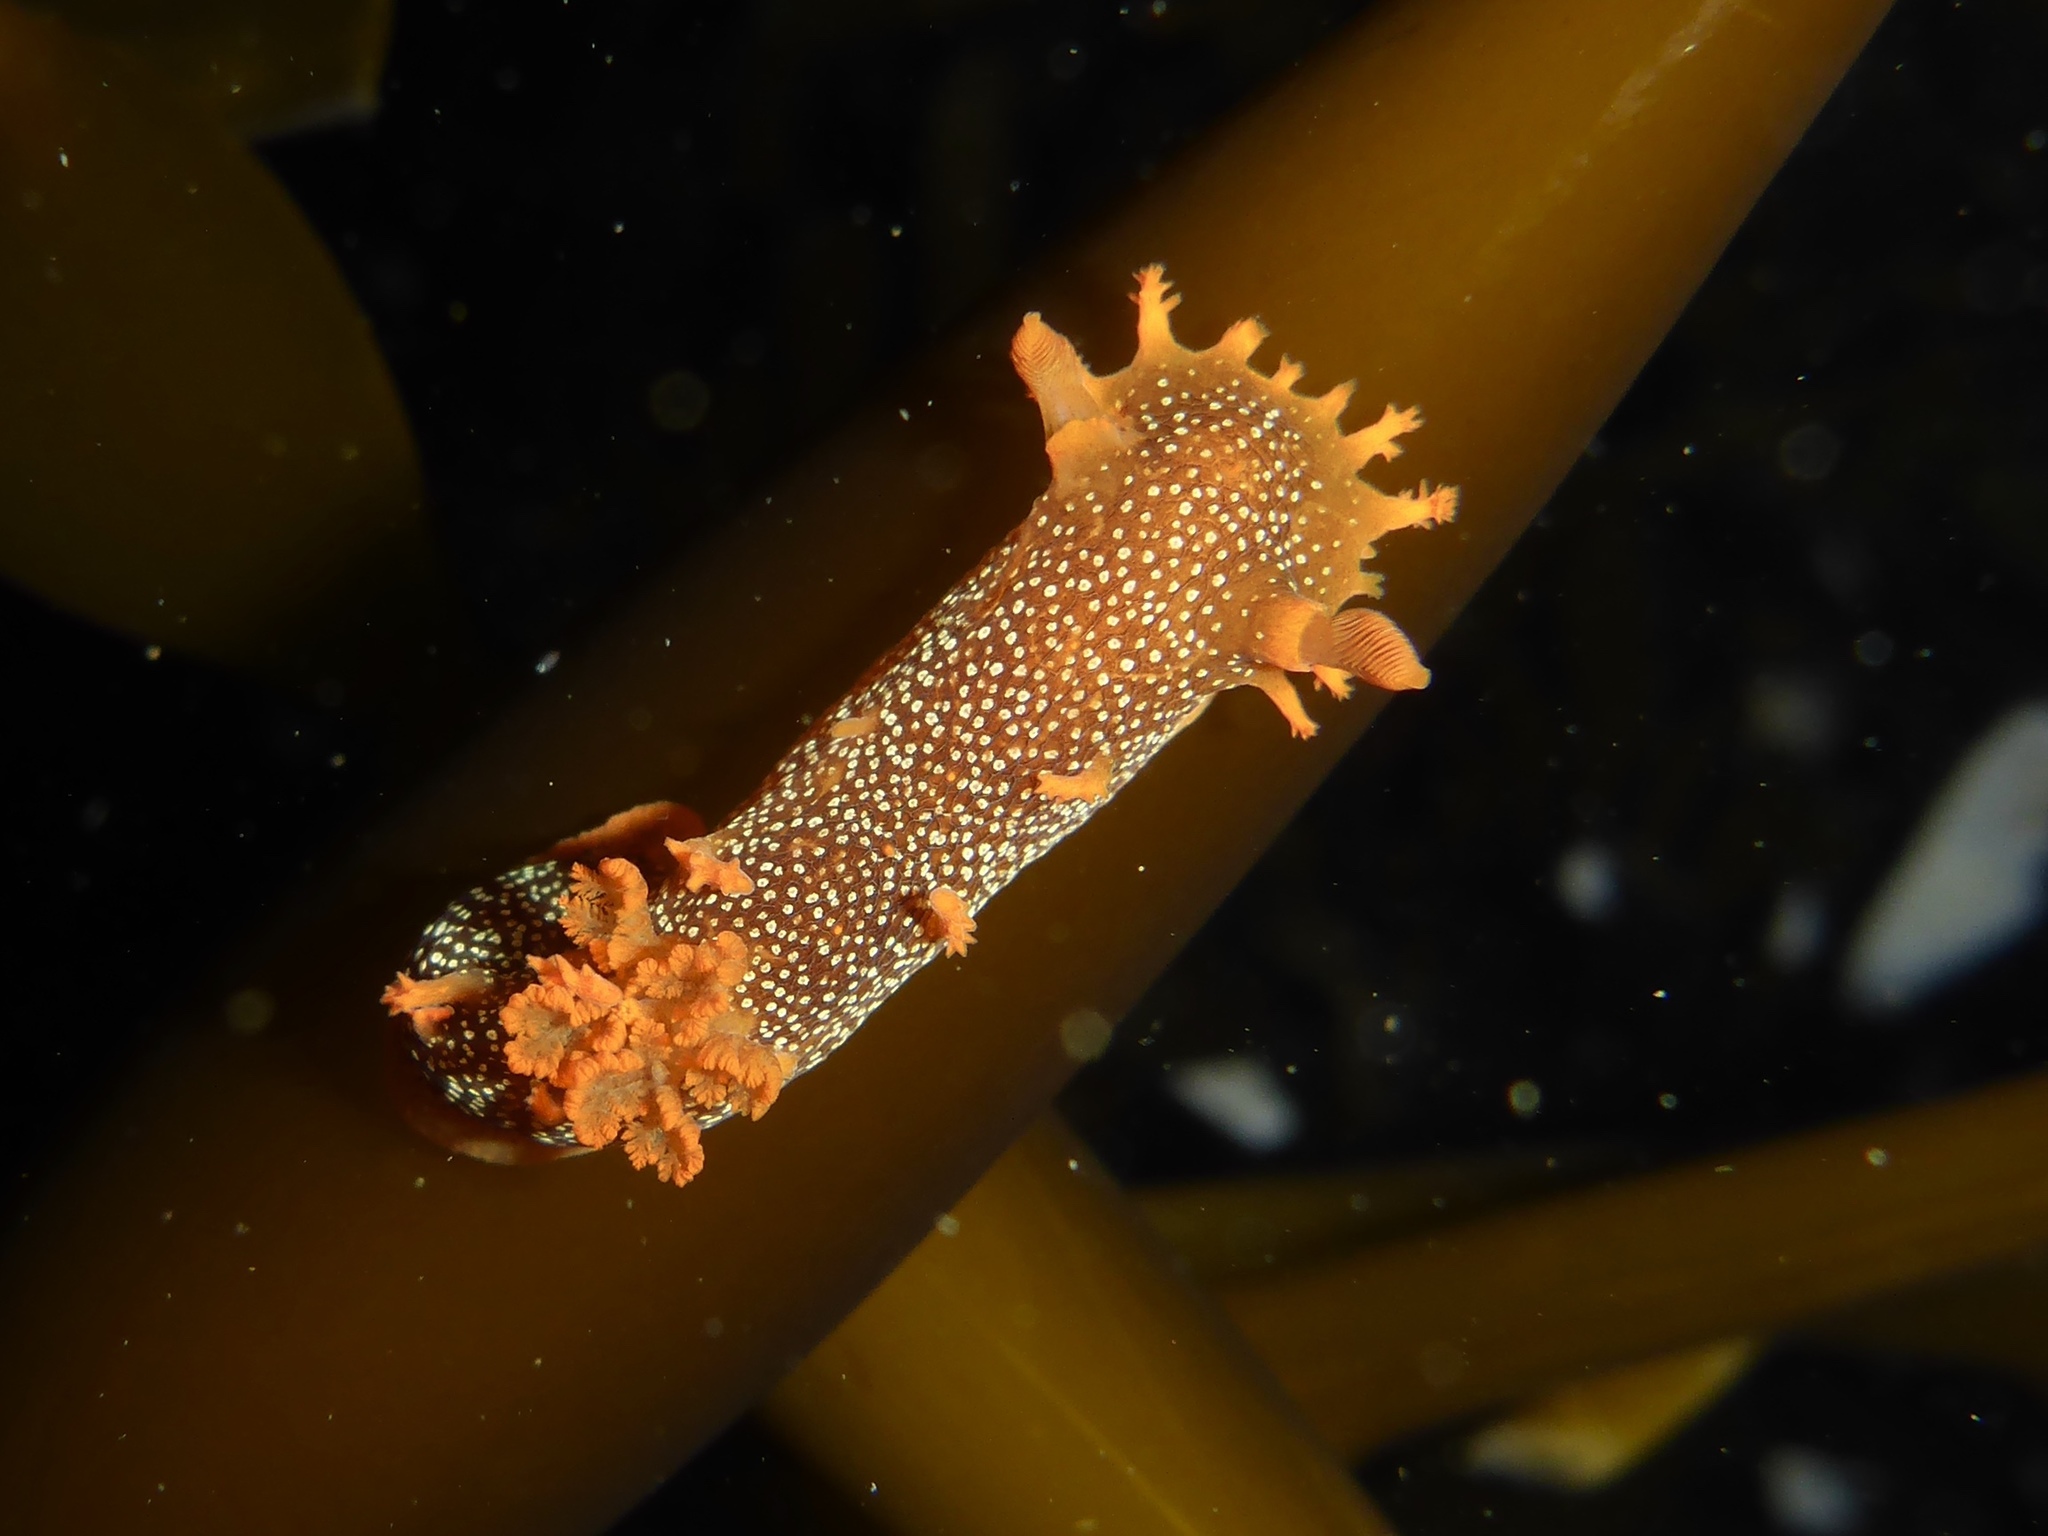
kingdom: Animalia
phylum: Mollusca
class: Gastropoda
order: Nudibranchia
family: Polyceridae
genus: Triopha
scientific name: Triopha maculata
